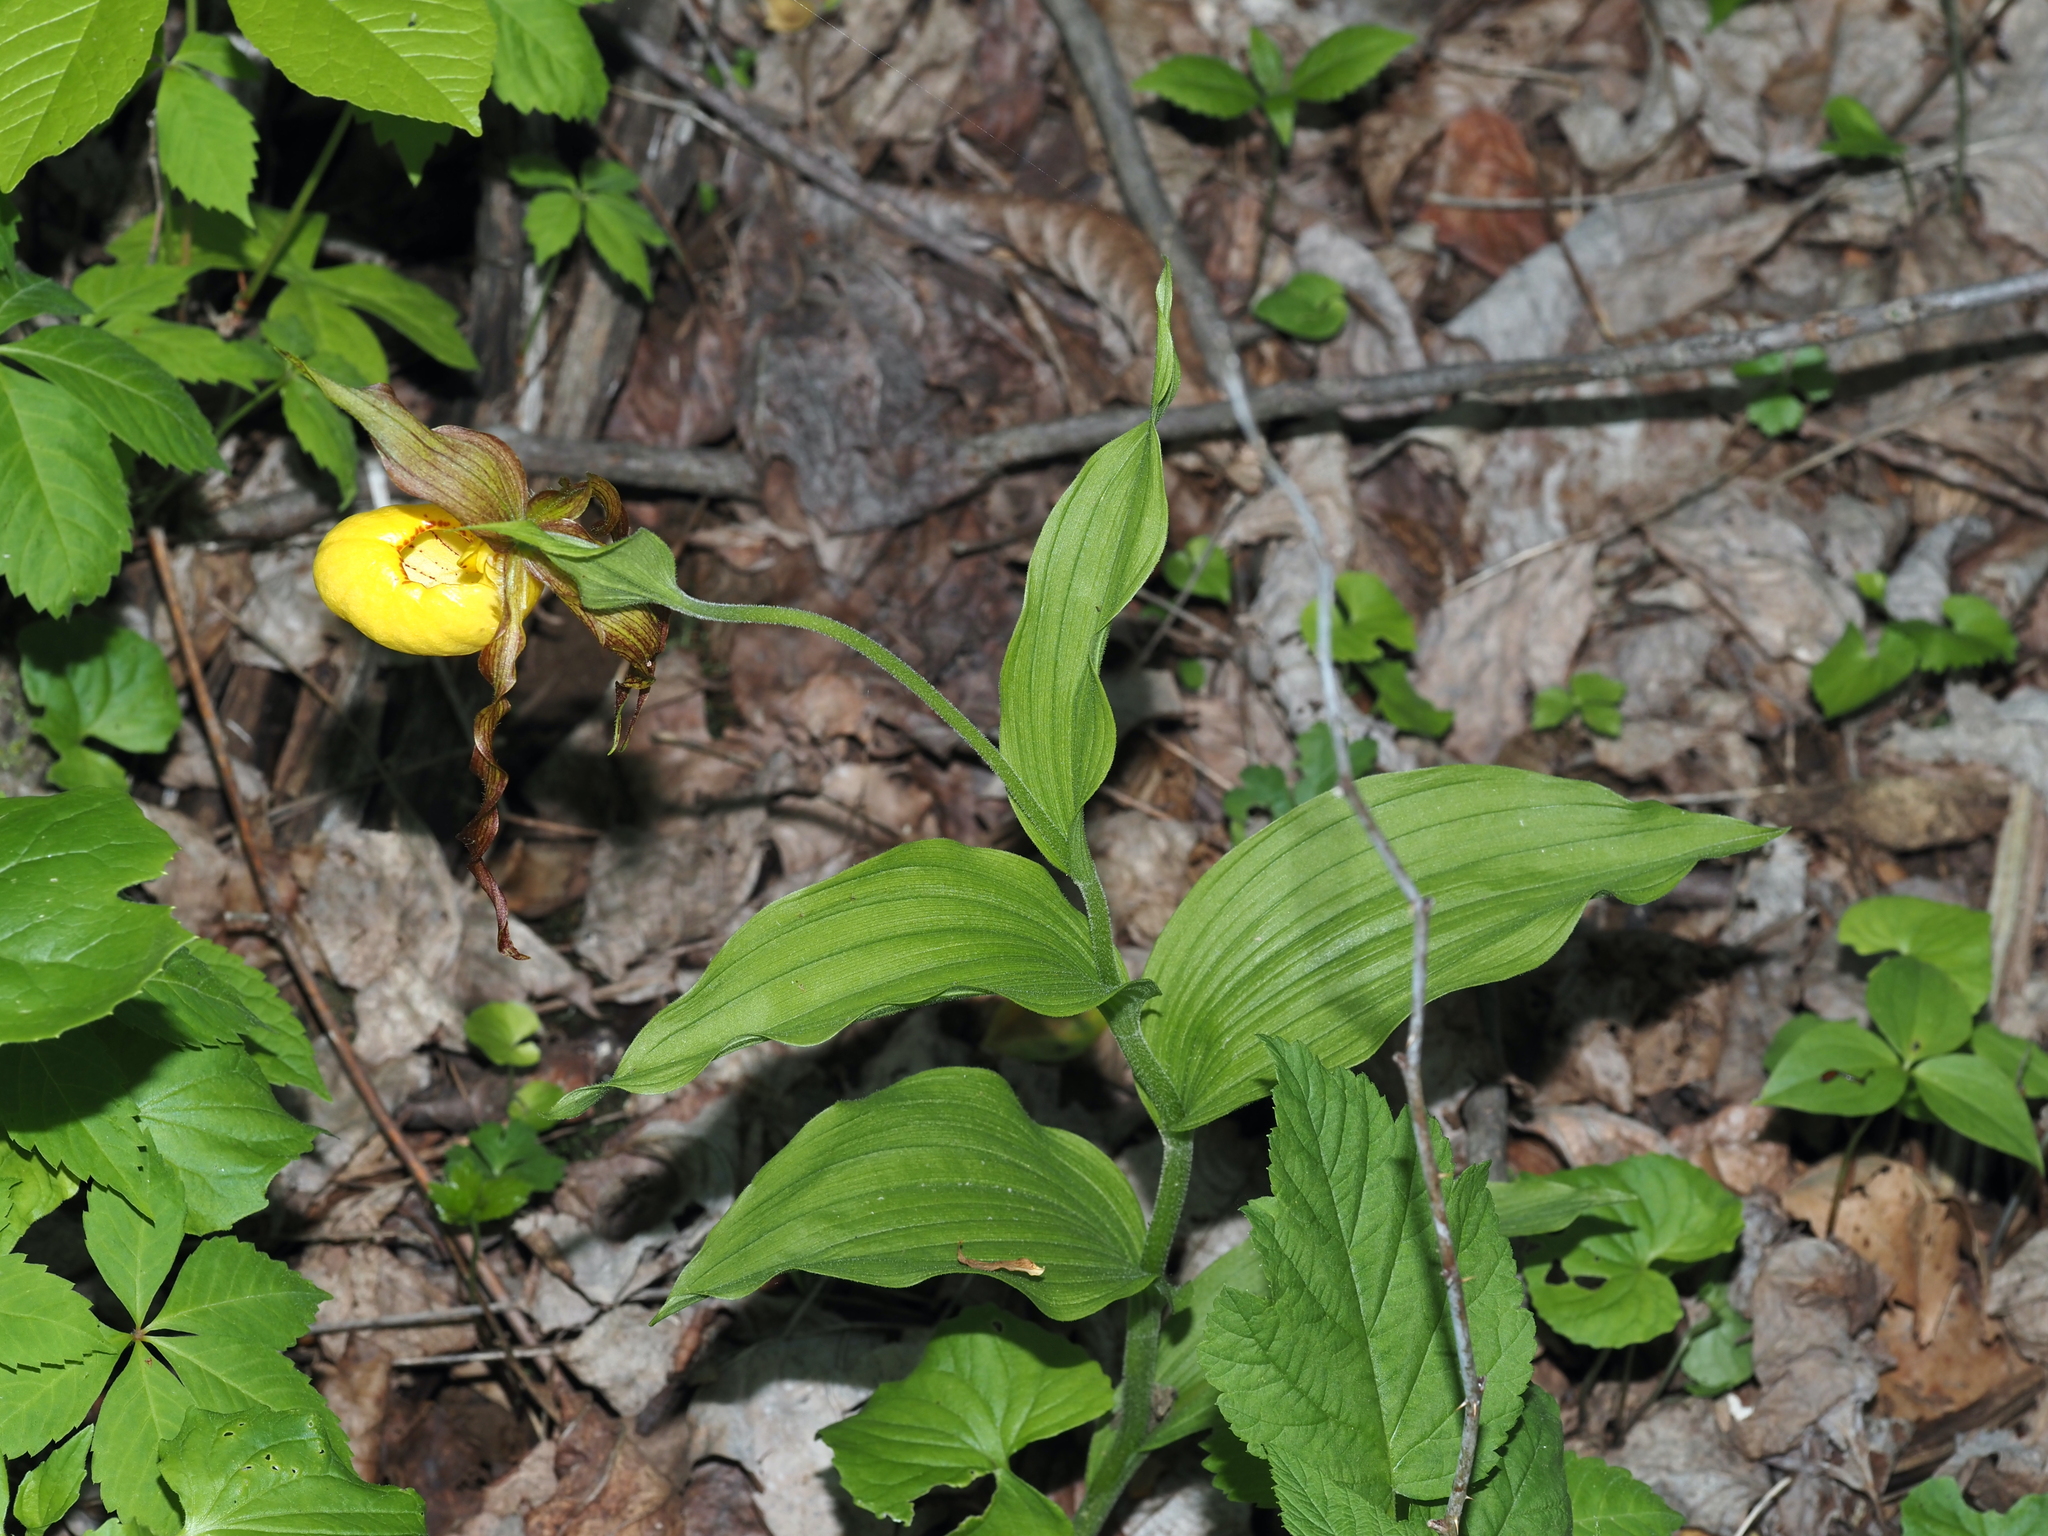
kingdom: Plantae
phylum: Tracheophyta
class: Liliopsida
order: Asparagales
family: Orchidaceae
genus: Cypripedium
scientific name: Cypripedium parviflorum
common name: American yellow lady's-slipper
